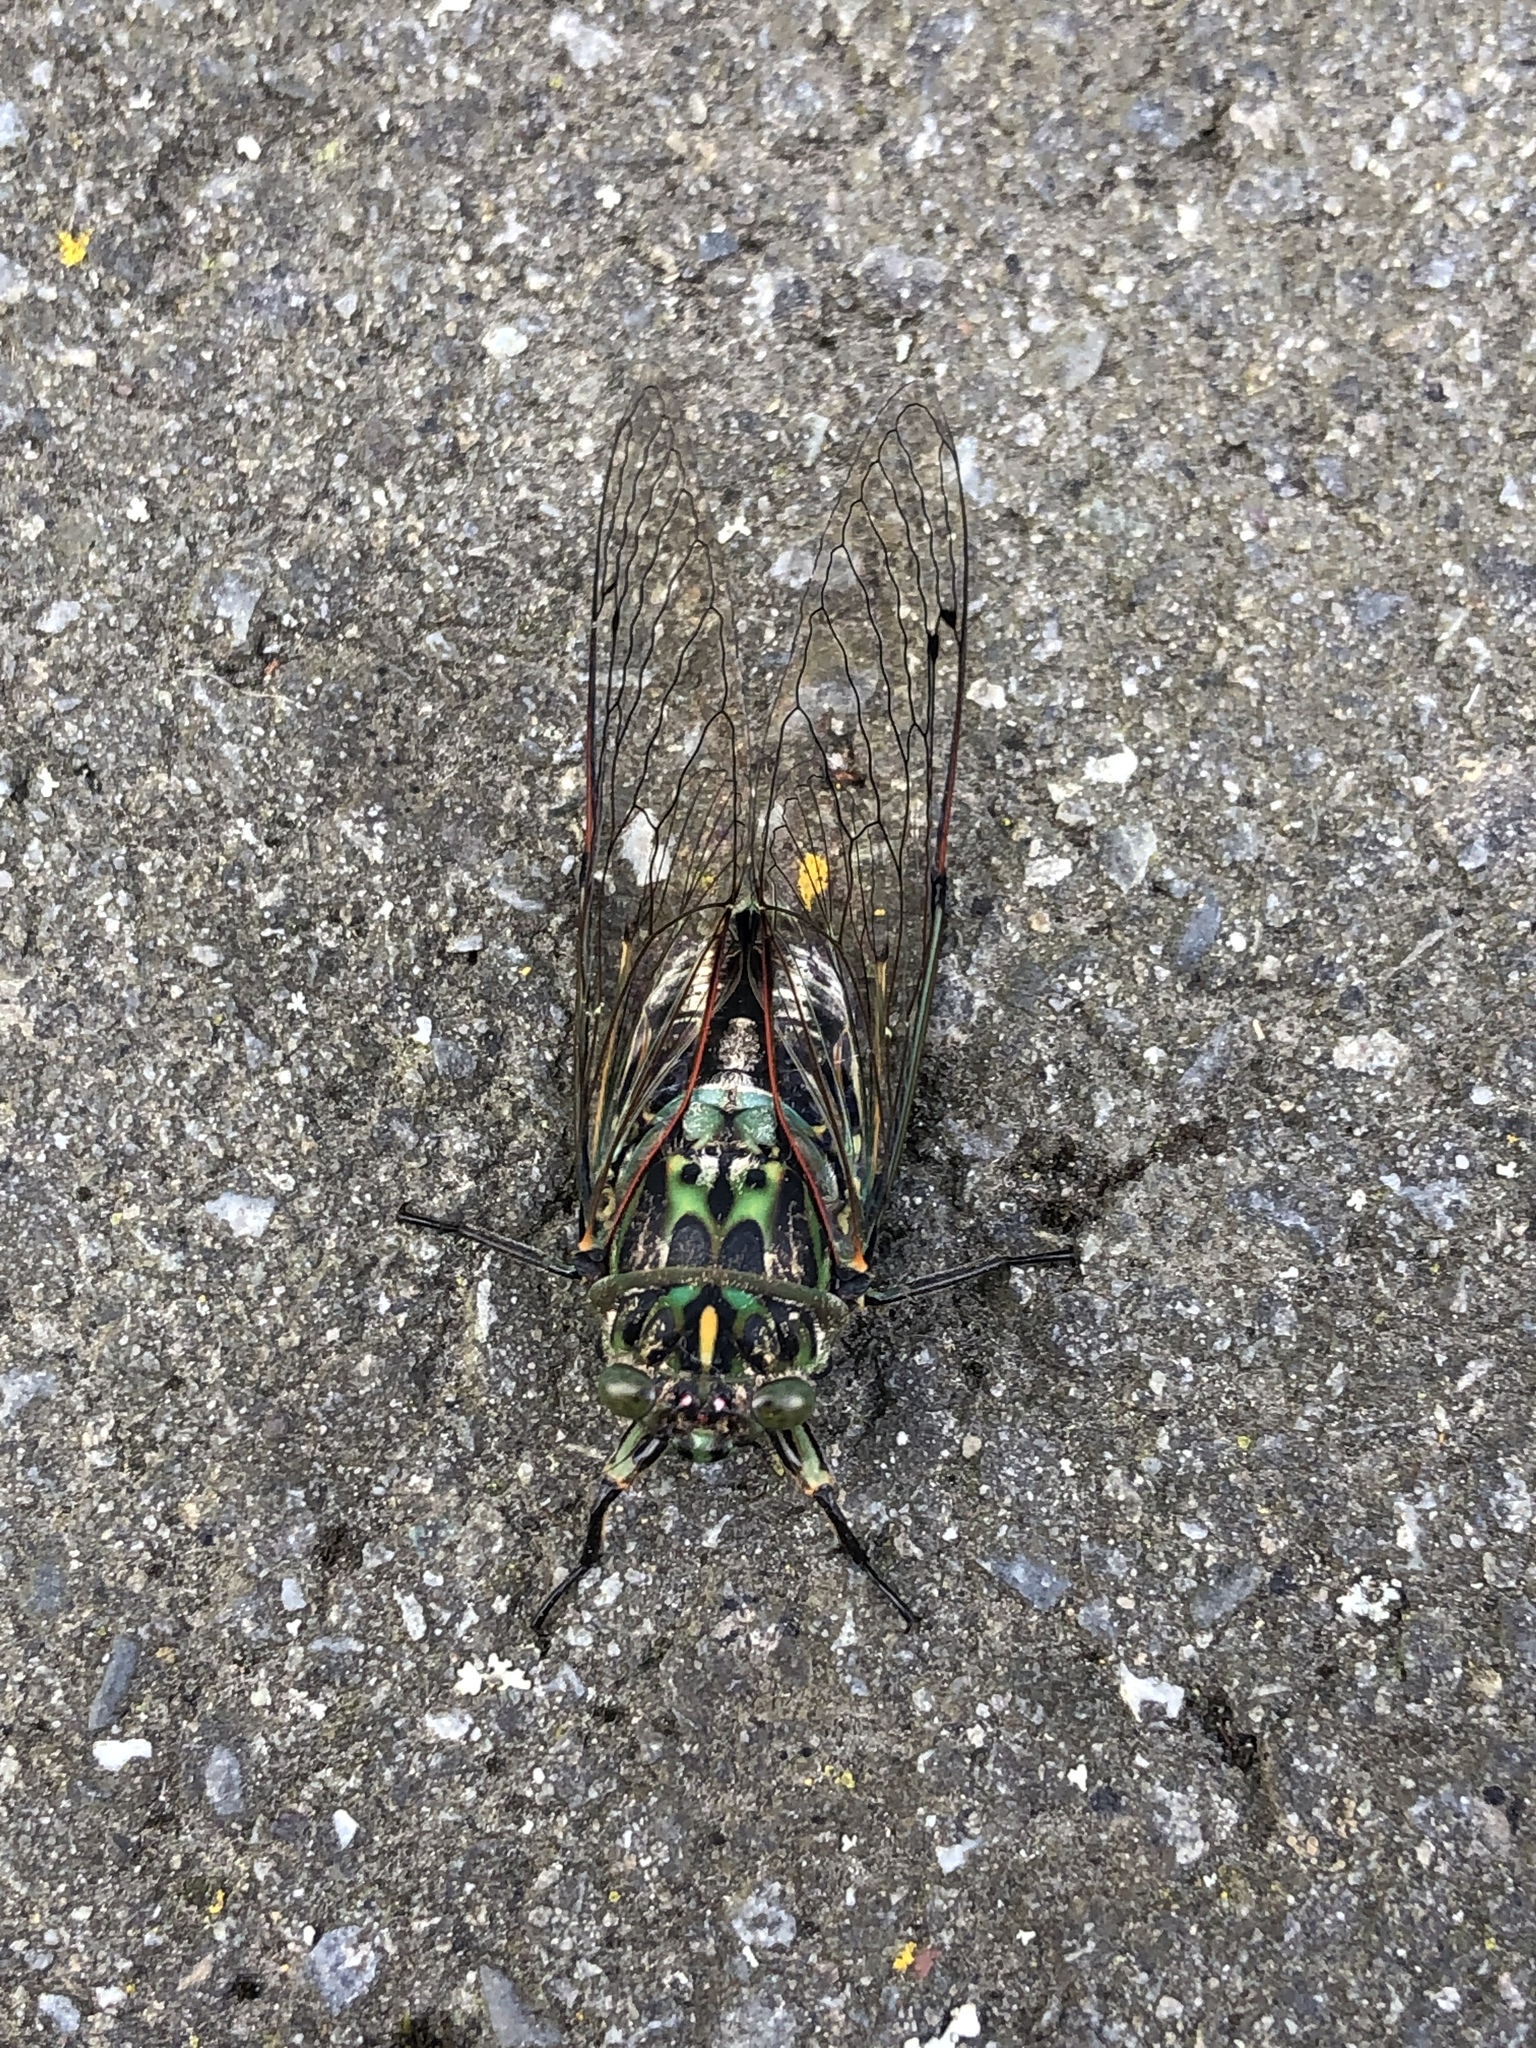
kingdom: Animalia
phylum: Arthropoda
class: Insecta
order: Hemiptera
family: Cicadidae
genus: Amphipsalta
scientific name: Amphipsalta zelandica
